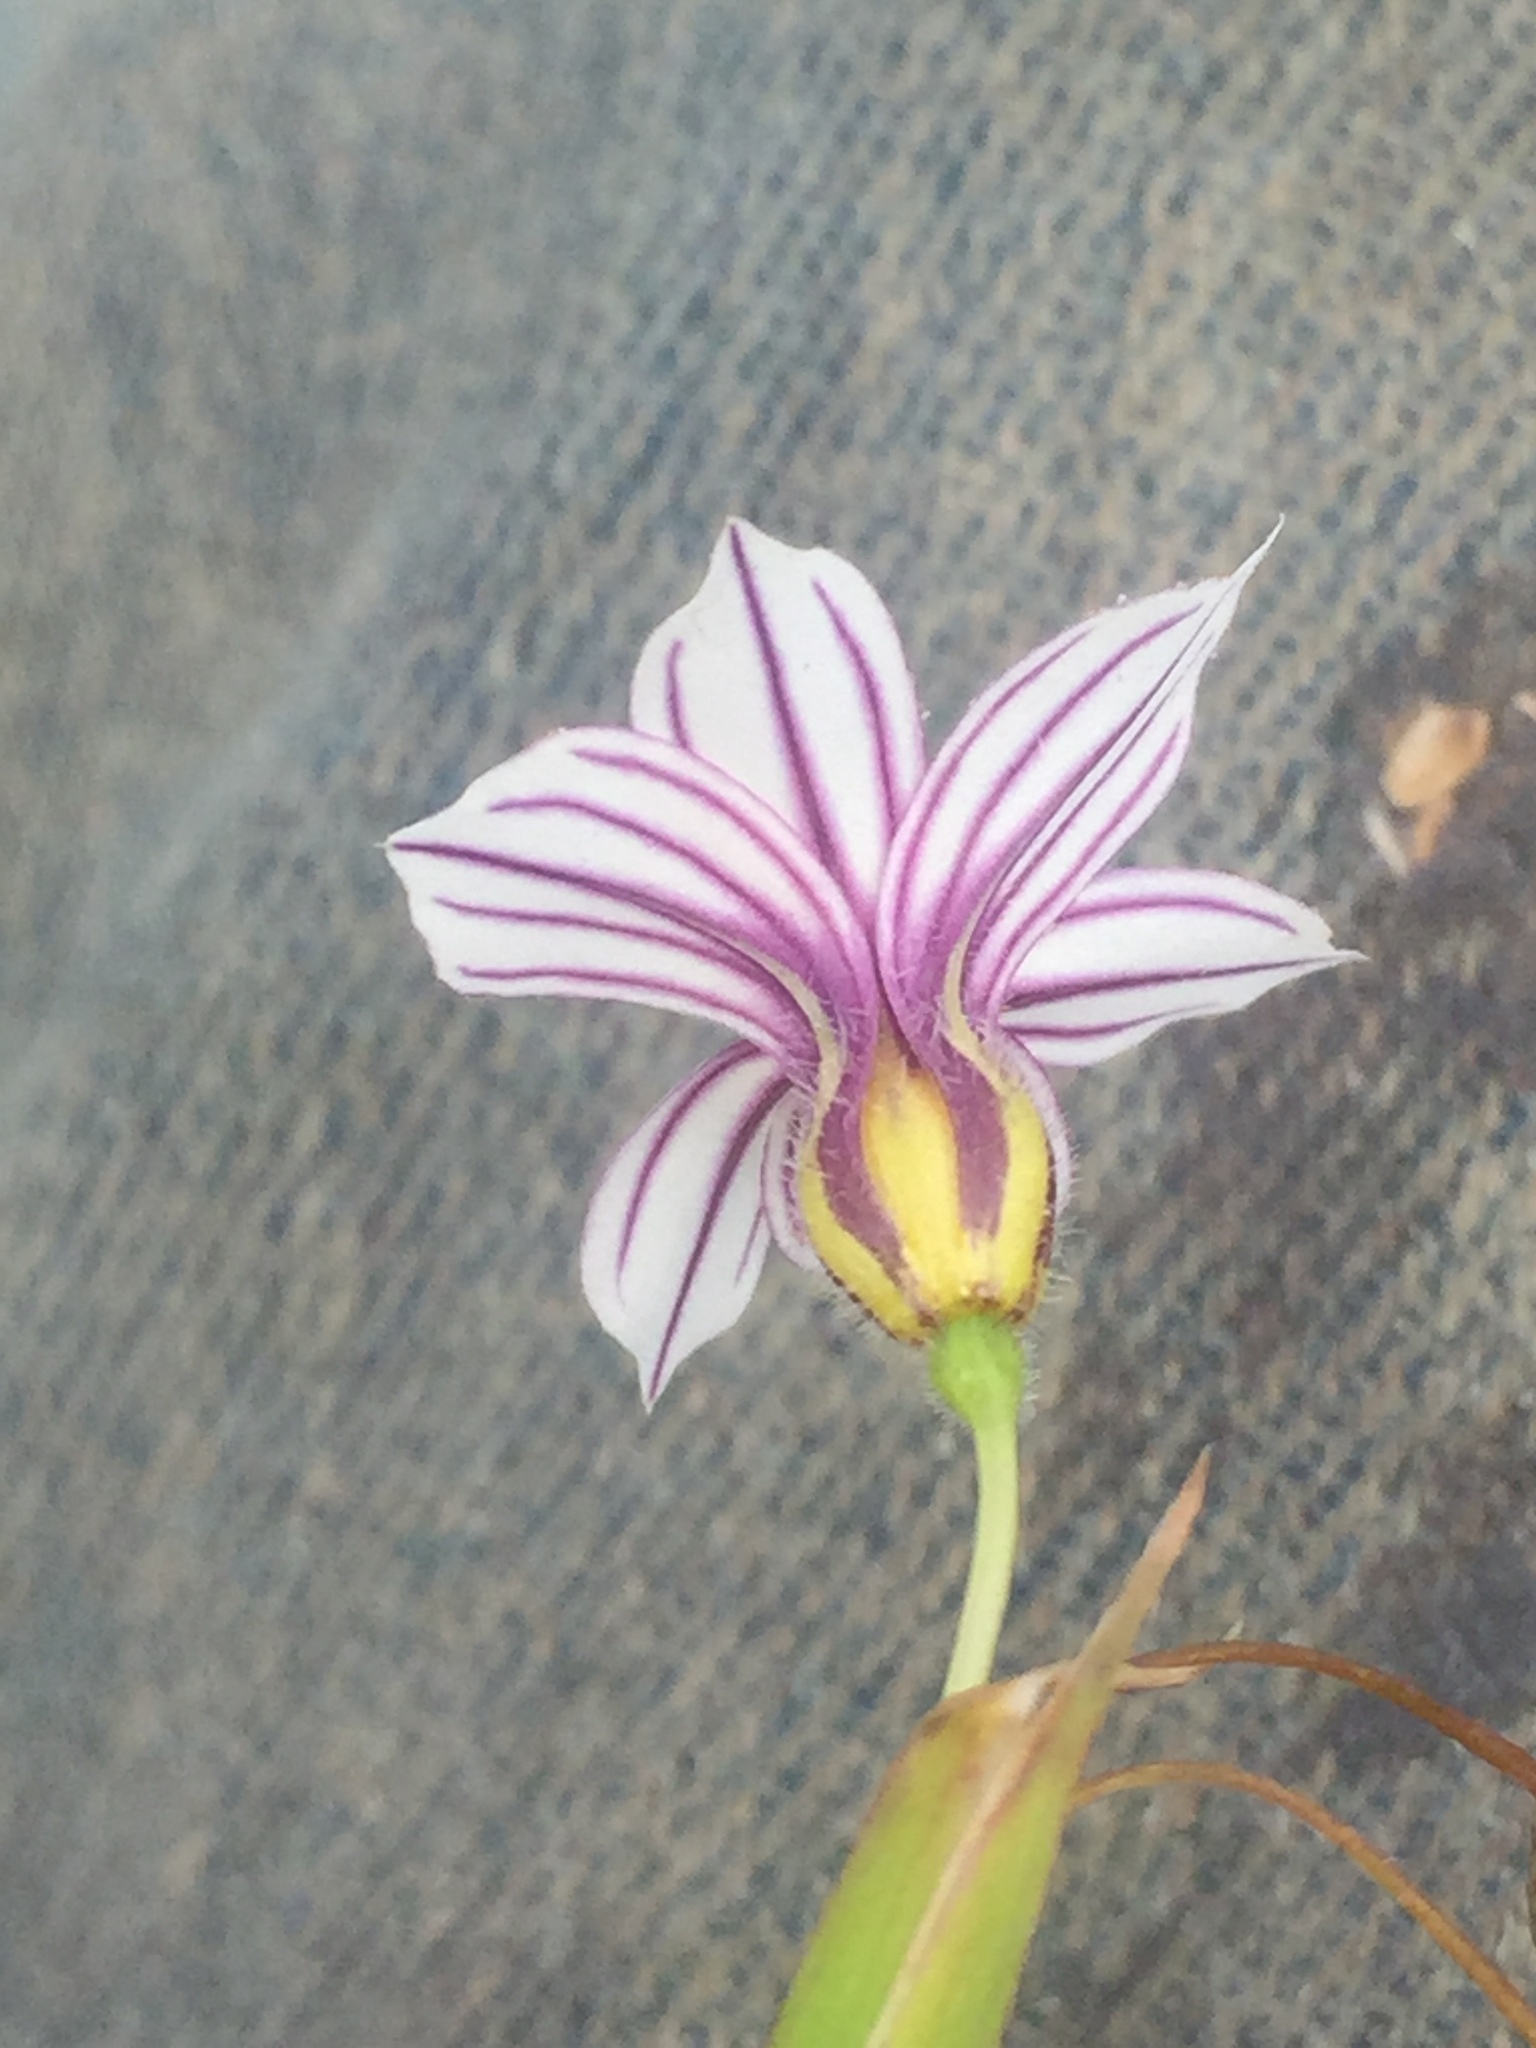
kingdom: Plantae
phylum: Tracheophyta
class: Liliopsida
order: Asparagales
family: Iridaceae
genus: Sisyrinchium
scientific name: Sisyrinchium micranthum
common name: Bermuda pigroot
